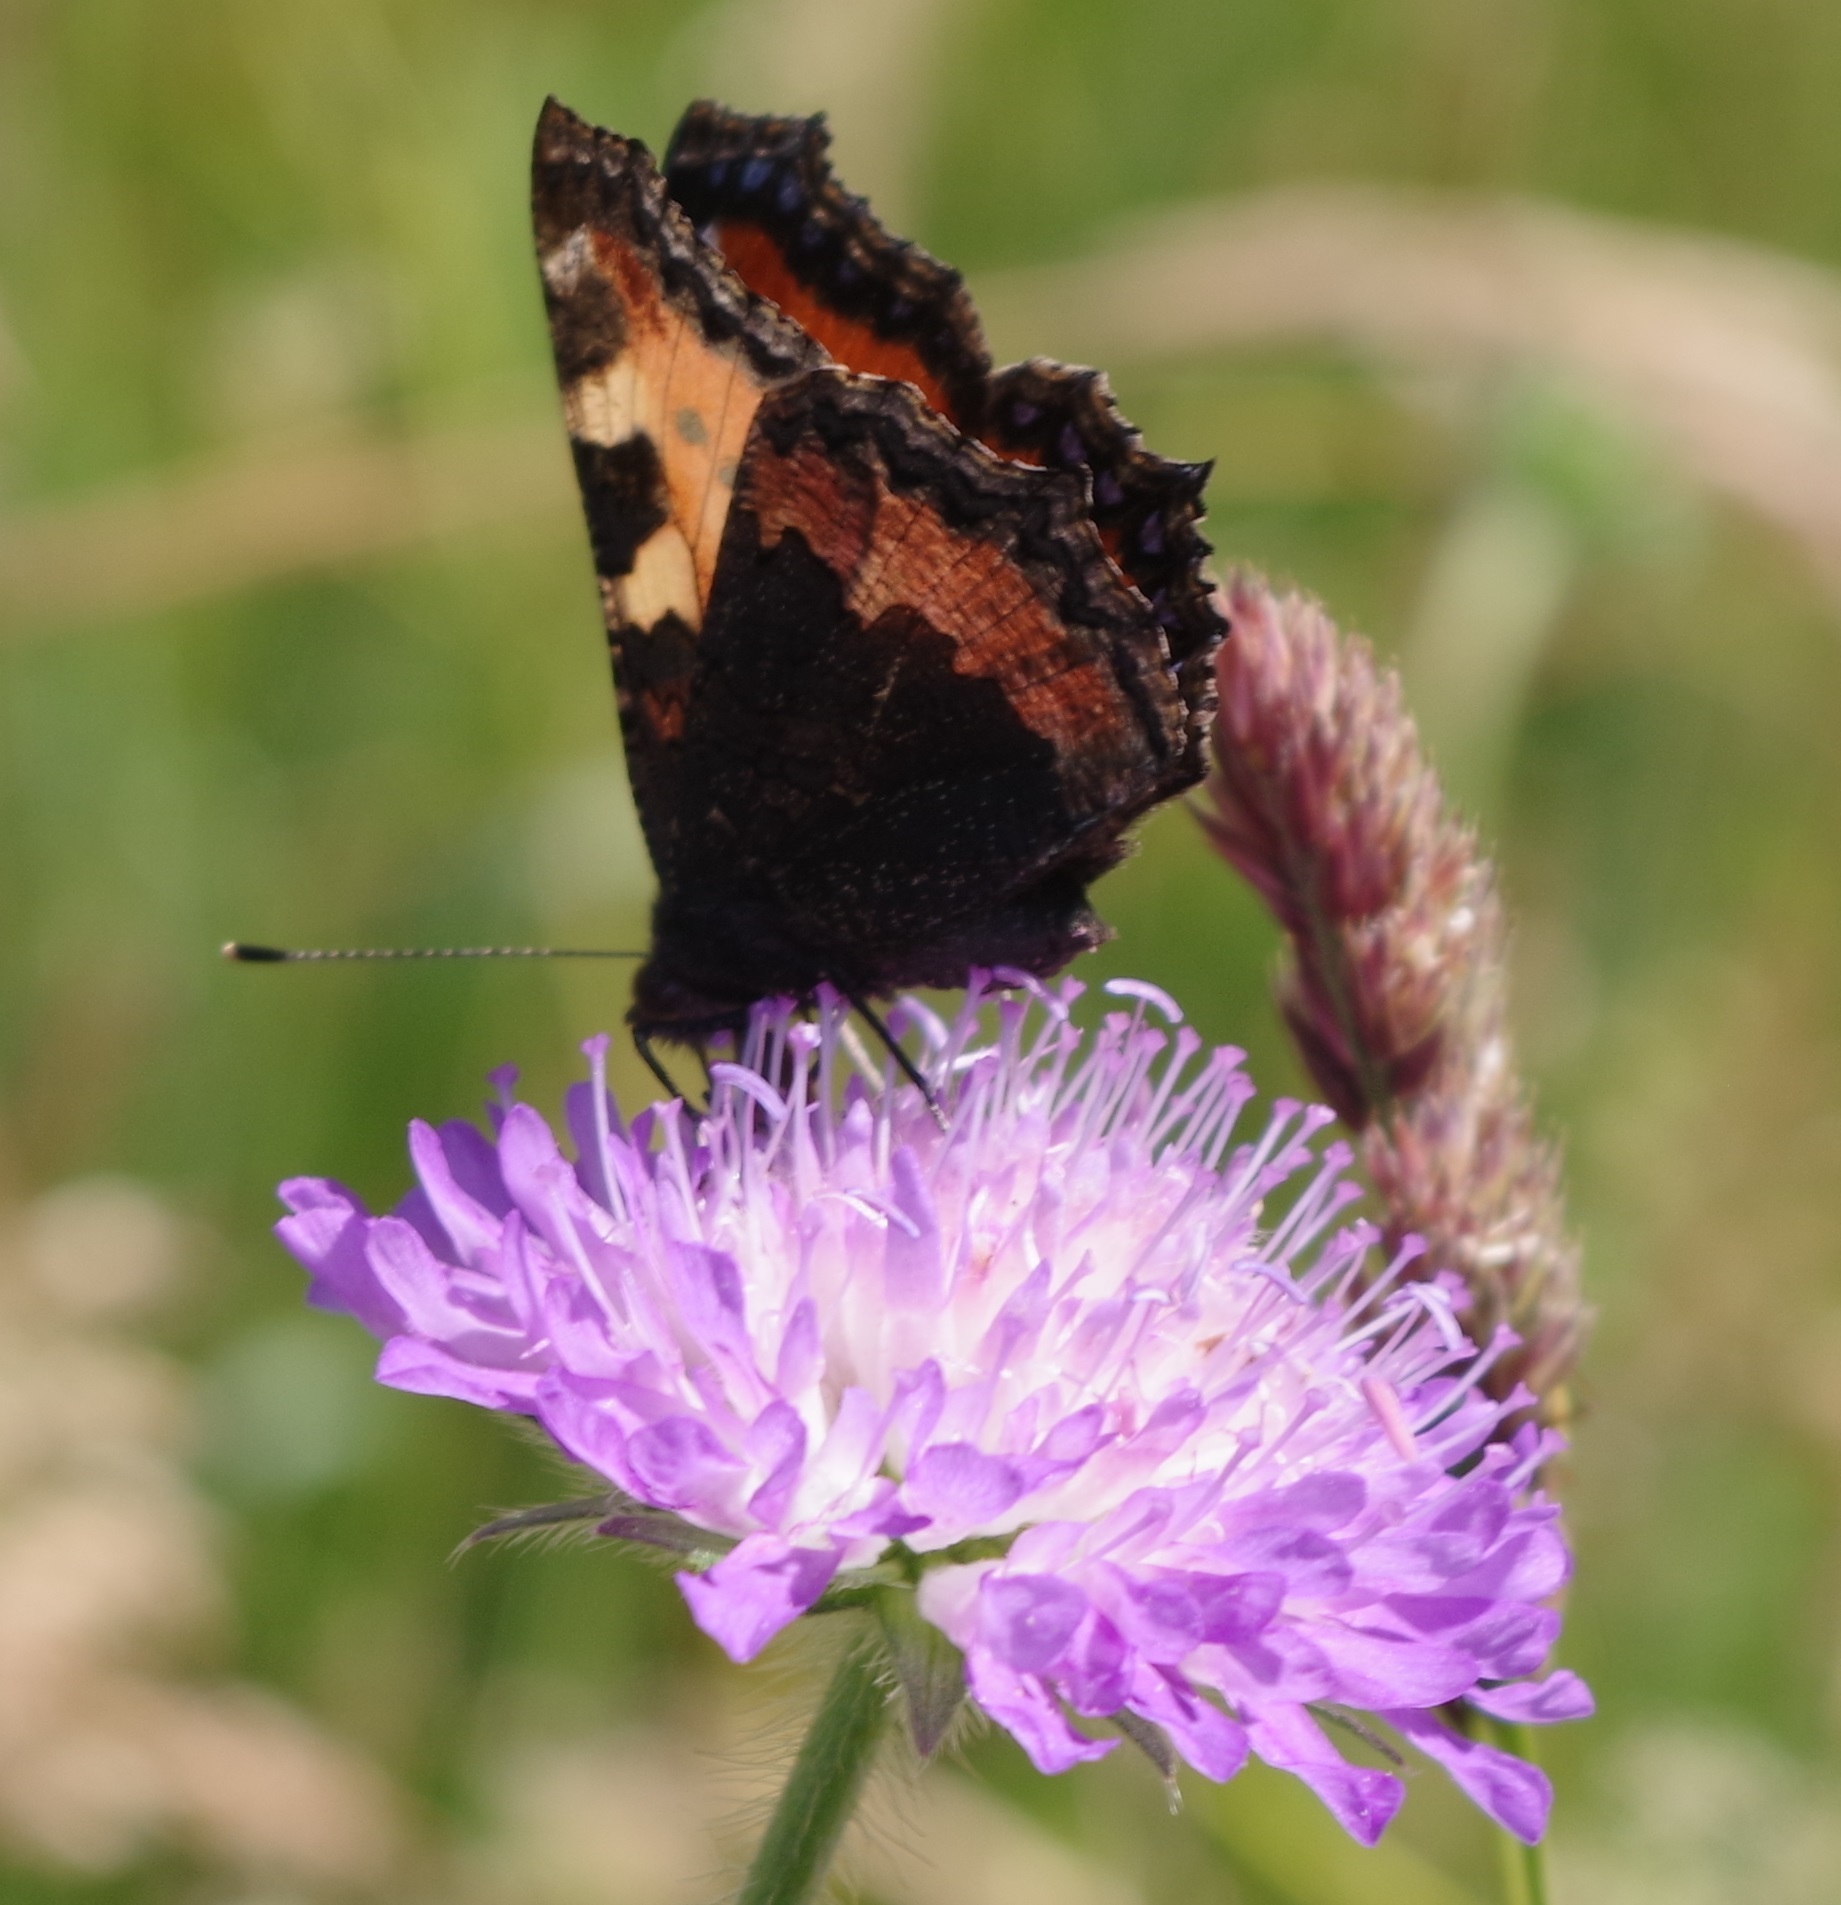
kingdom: Animalia
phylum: Arthropoda
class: Insecta
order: Lepidoptera
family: Nymphalidae
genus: Aglais
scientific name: Aglais urticae
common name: Small tortoiseshell
